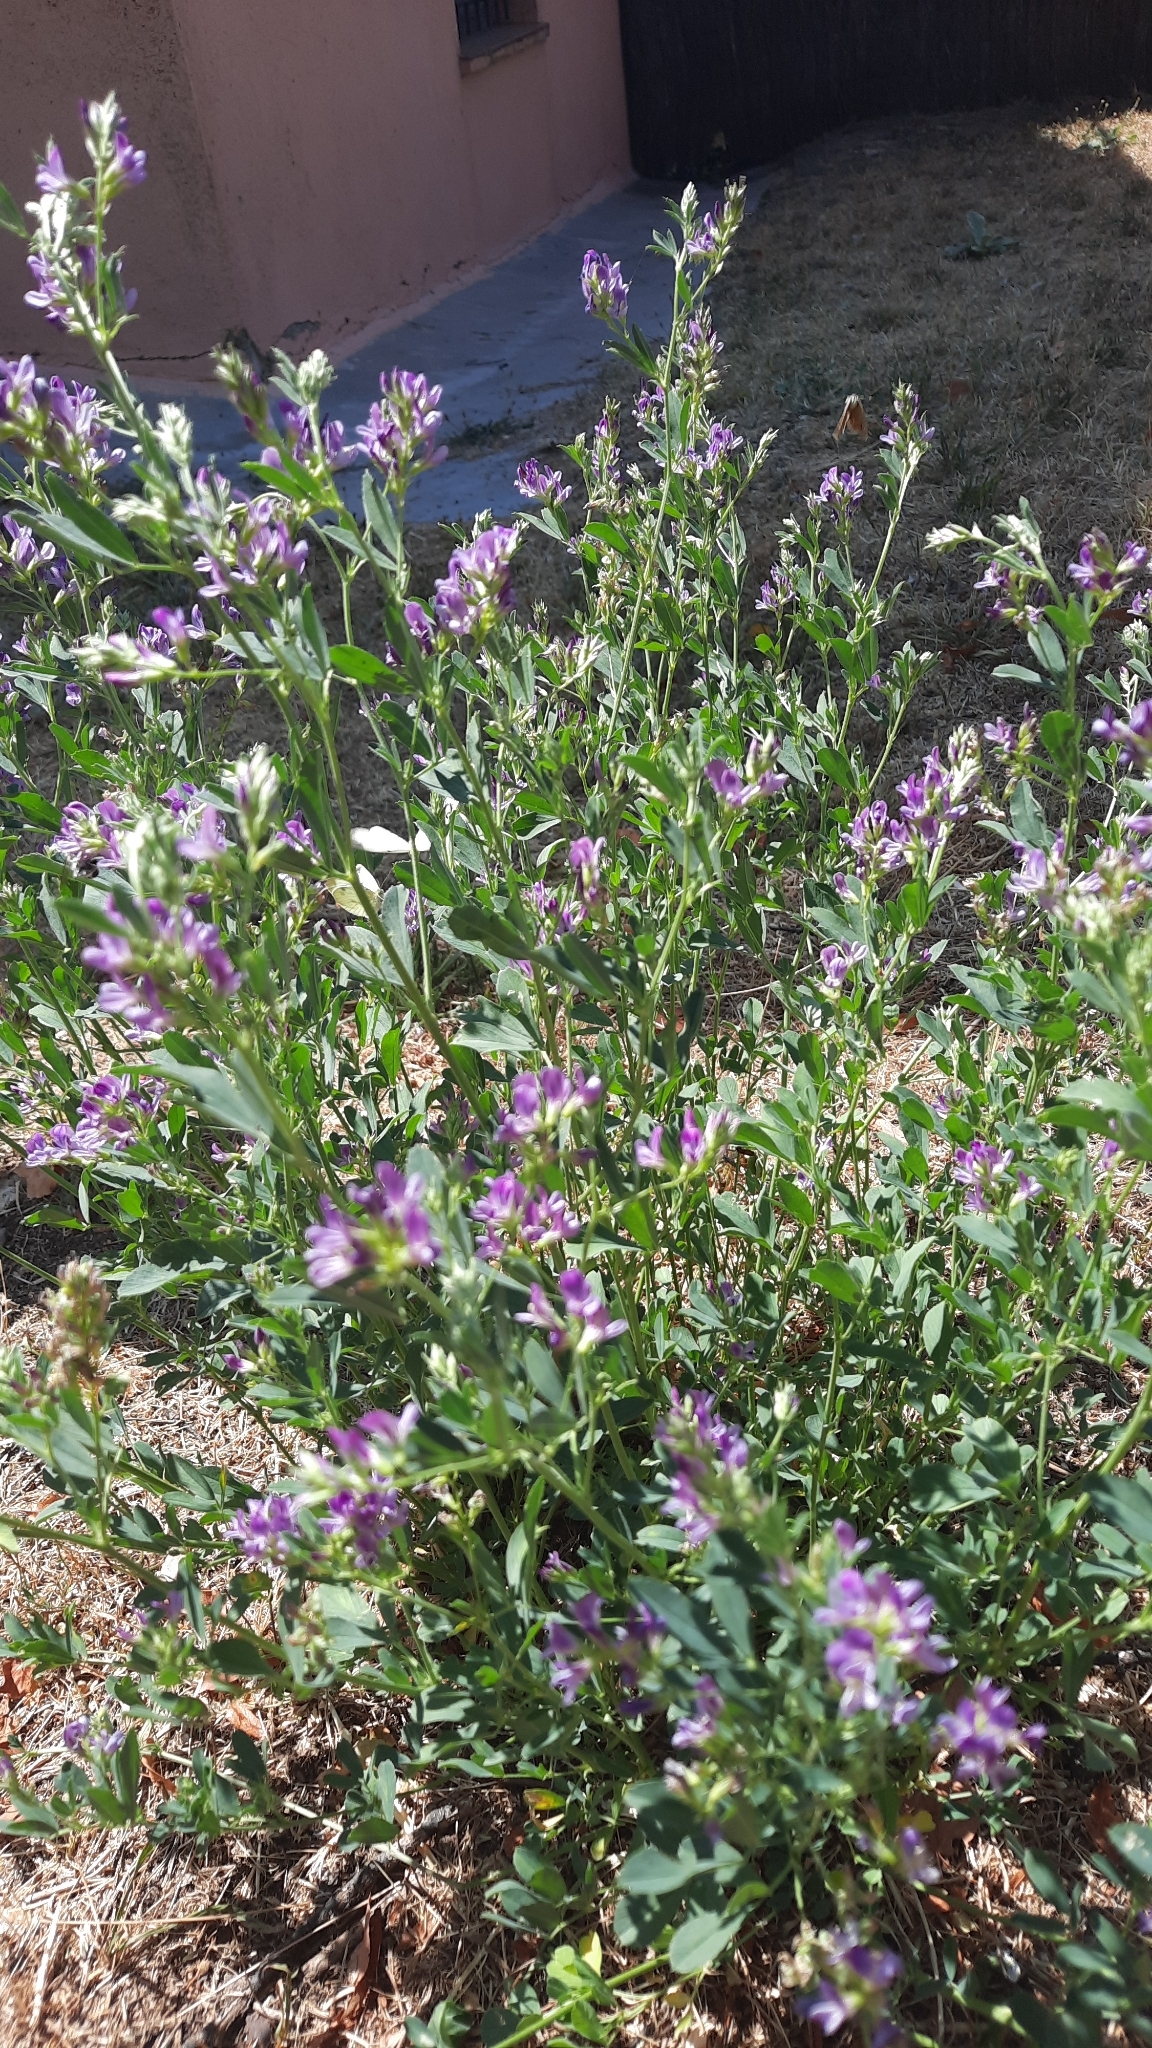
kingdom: Plantae
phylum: Tracheophyta
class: Magnoliopsida
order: Fabales
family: Fabaceae
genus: Medicago
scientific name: Medicago sativa
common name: Alfalfa
